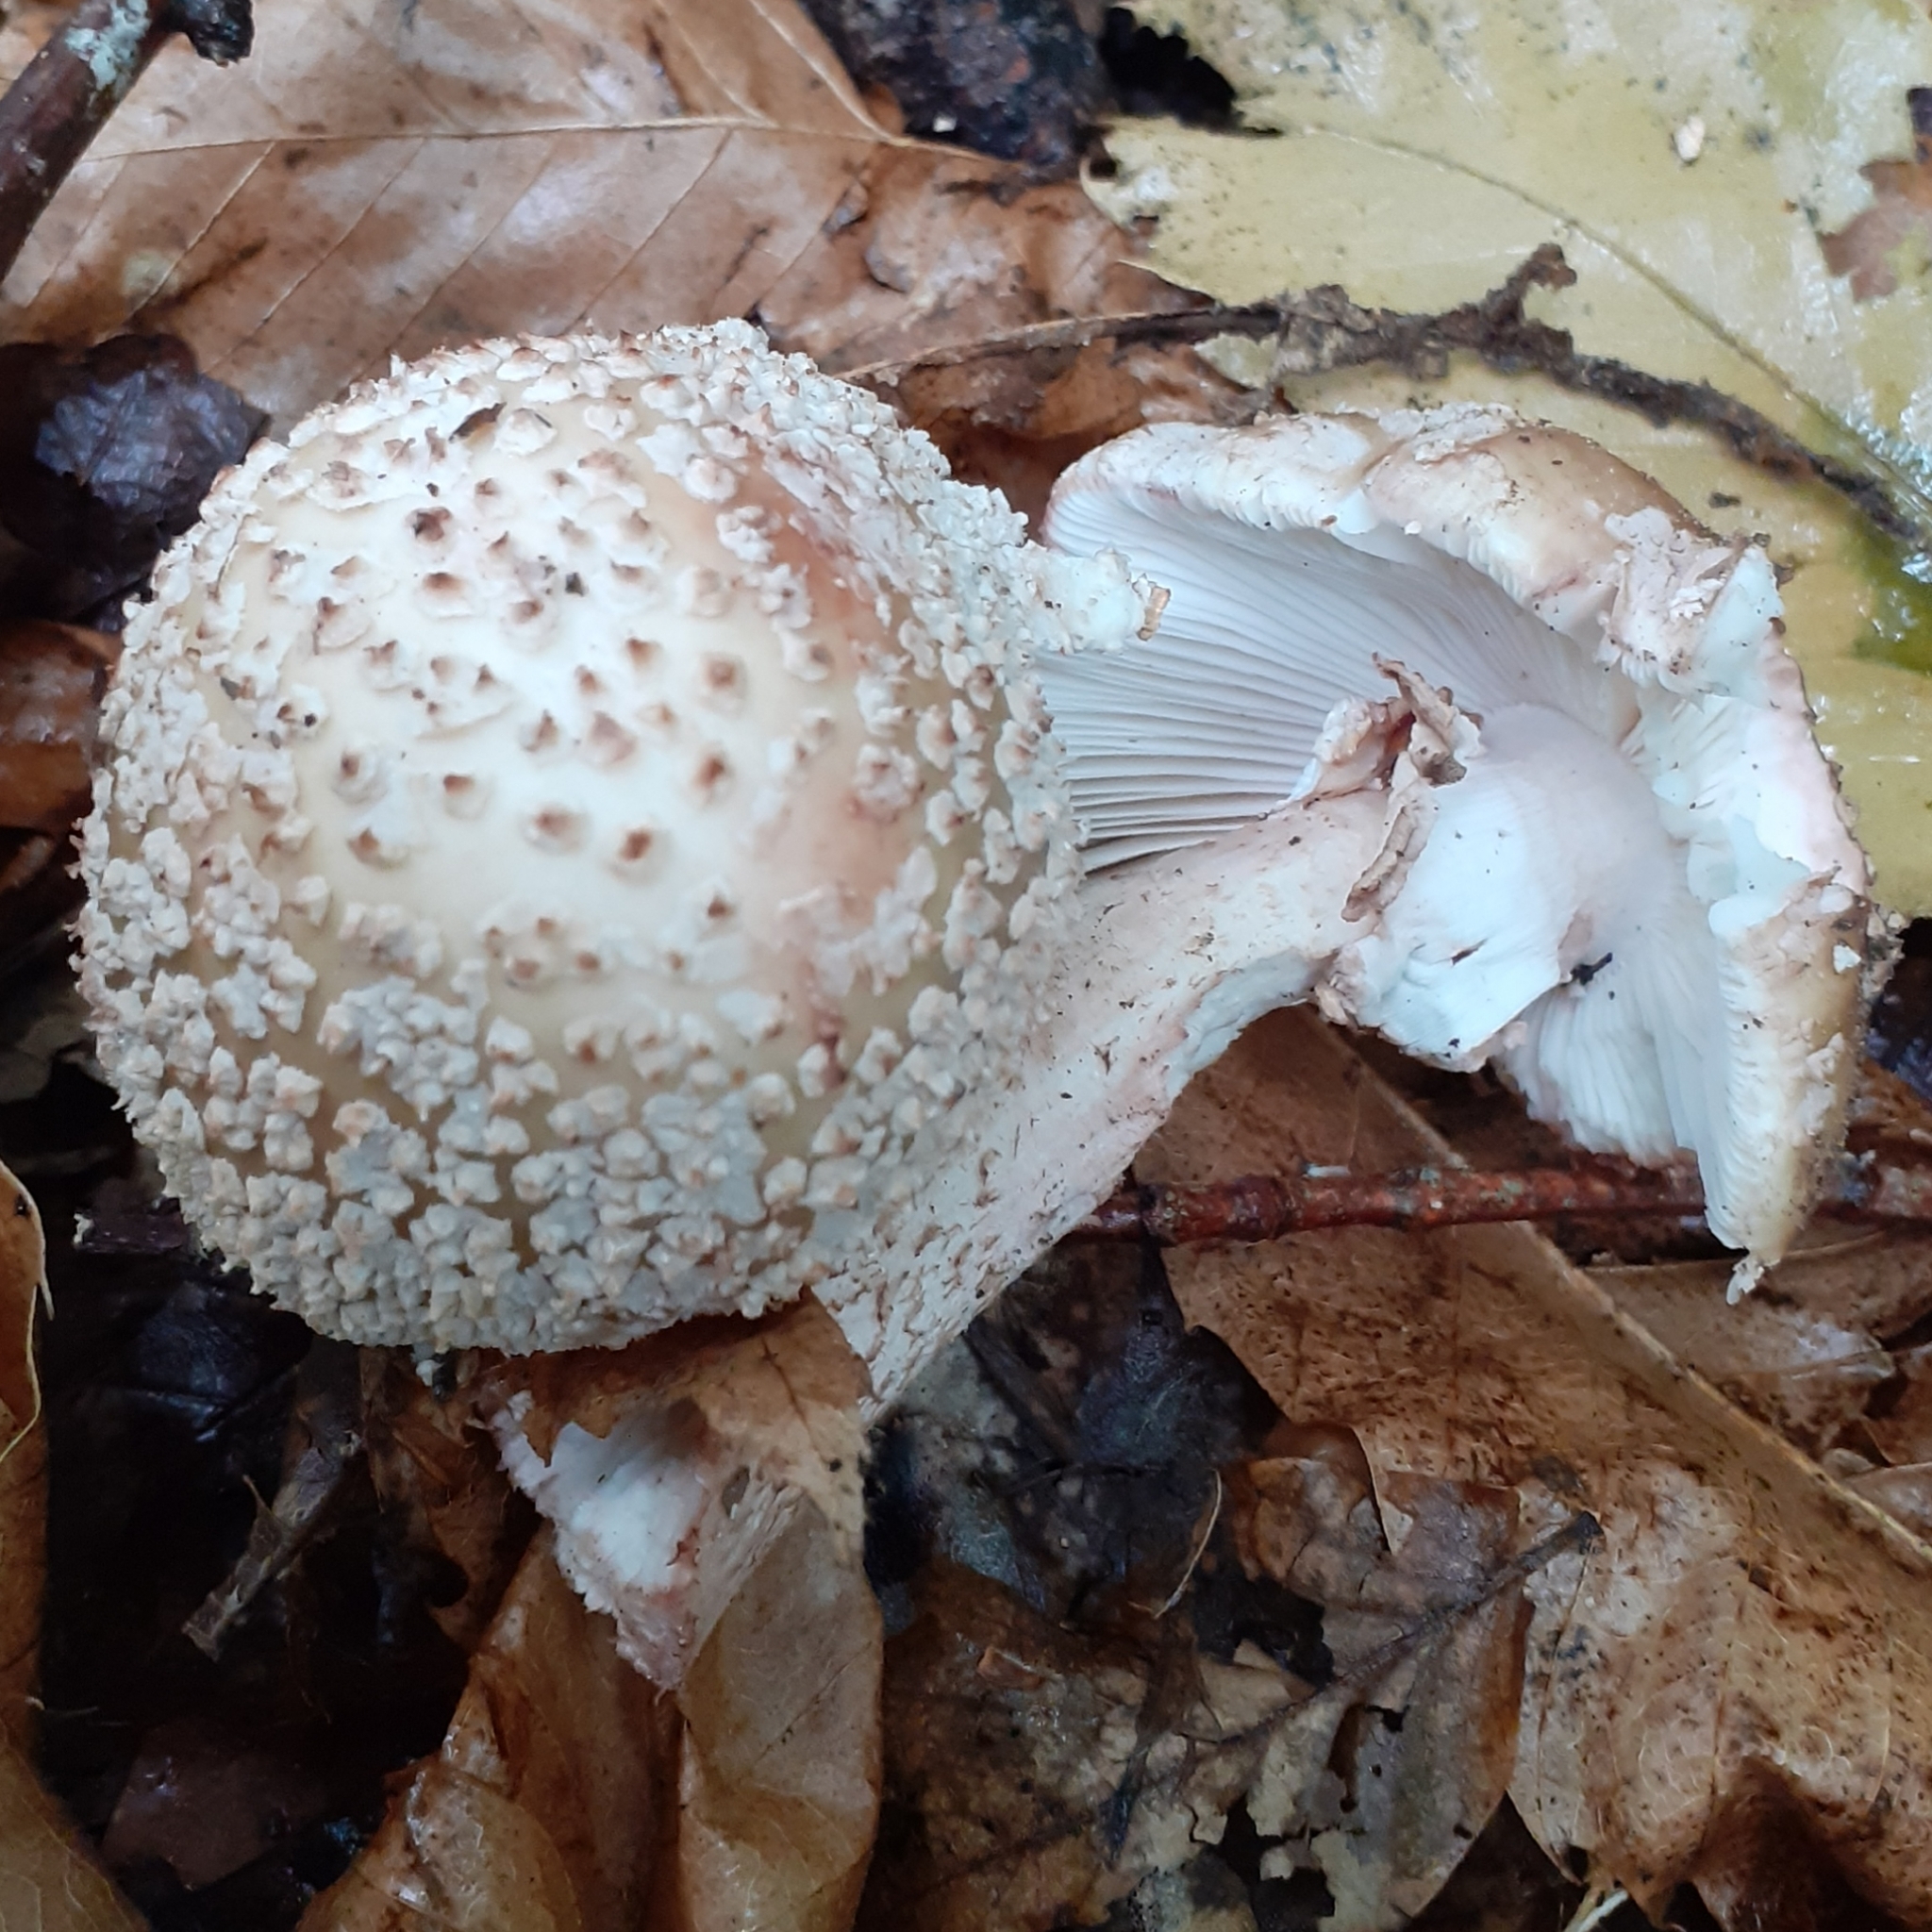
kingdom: Fungi
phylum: Basidiomycota
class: Agaricomycetes
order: Agaricales
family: Amanitaceae
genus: Amanita
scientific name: Amanita rubescens
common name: Blusher
